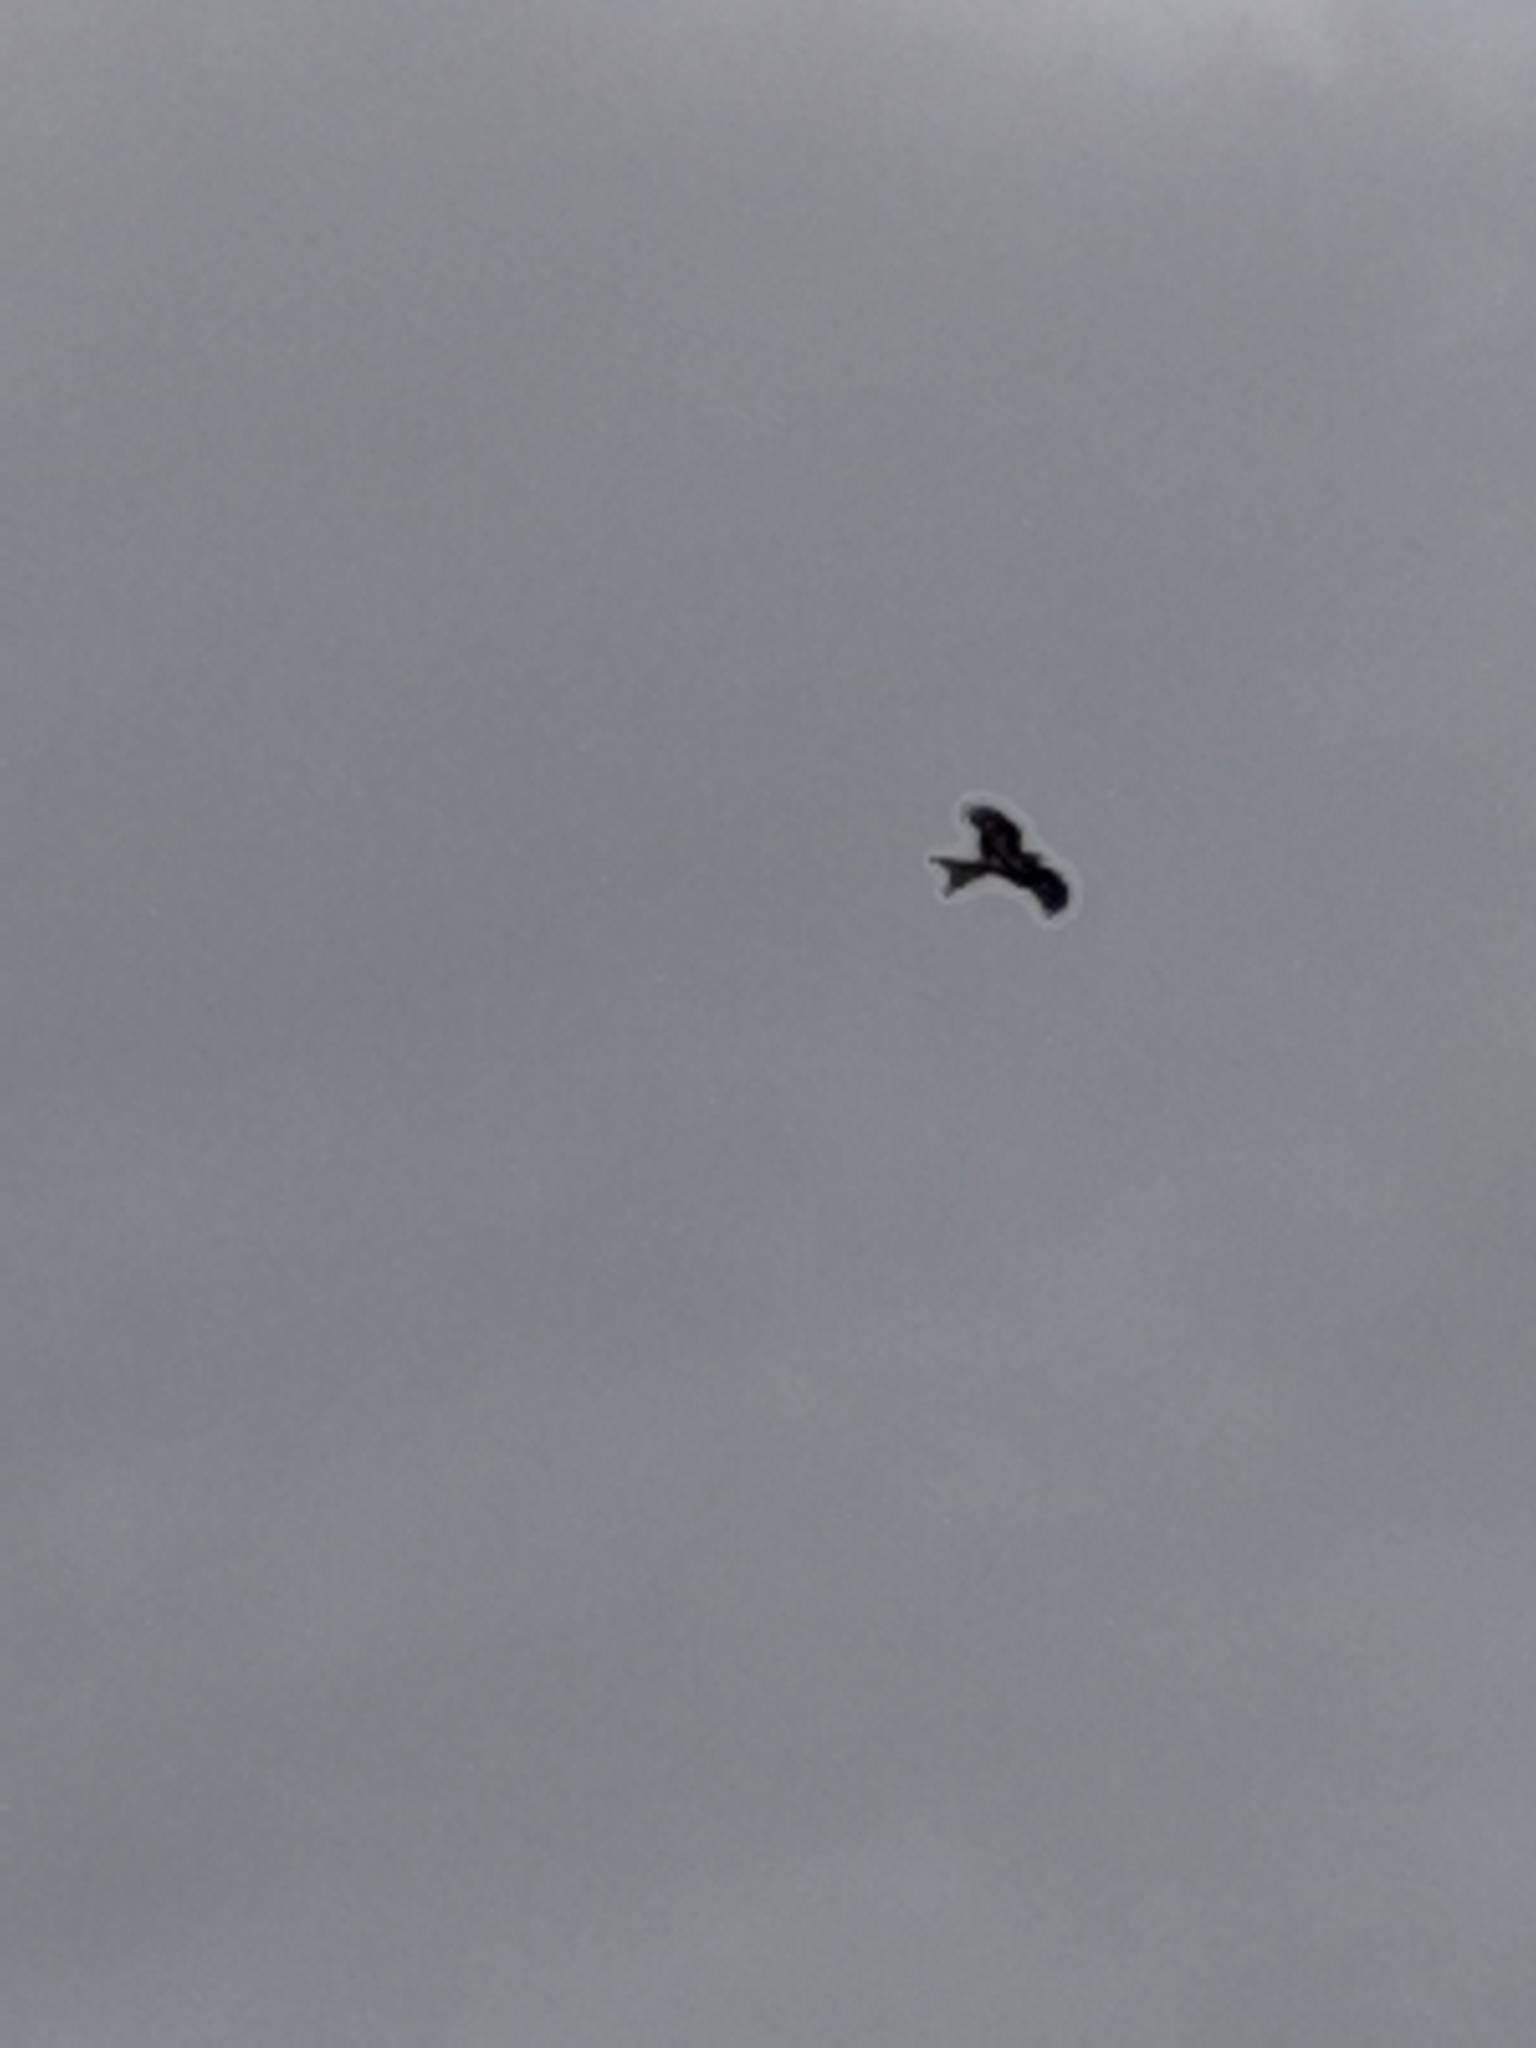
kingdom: Animalia
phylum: Chordata
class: Aves
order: Accipitriformes
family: Accipitridae
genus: Milvus
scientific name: Milvus milvus
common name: Red kite
